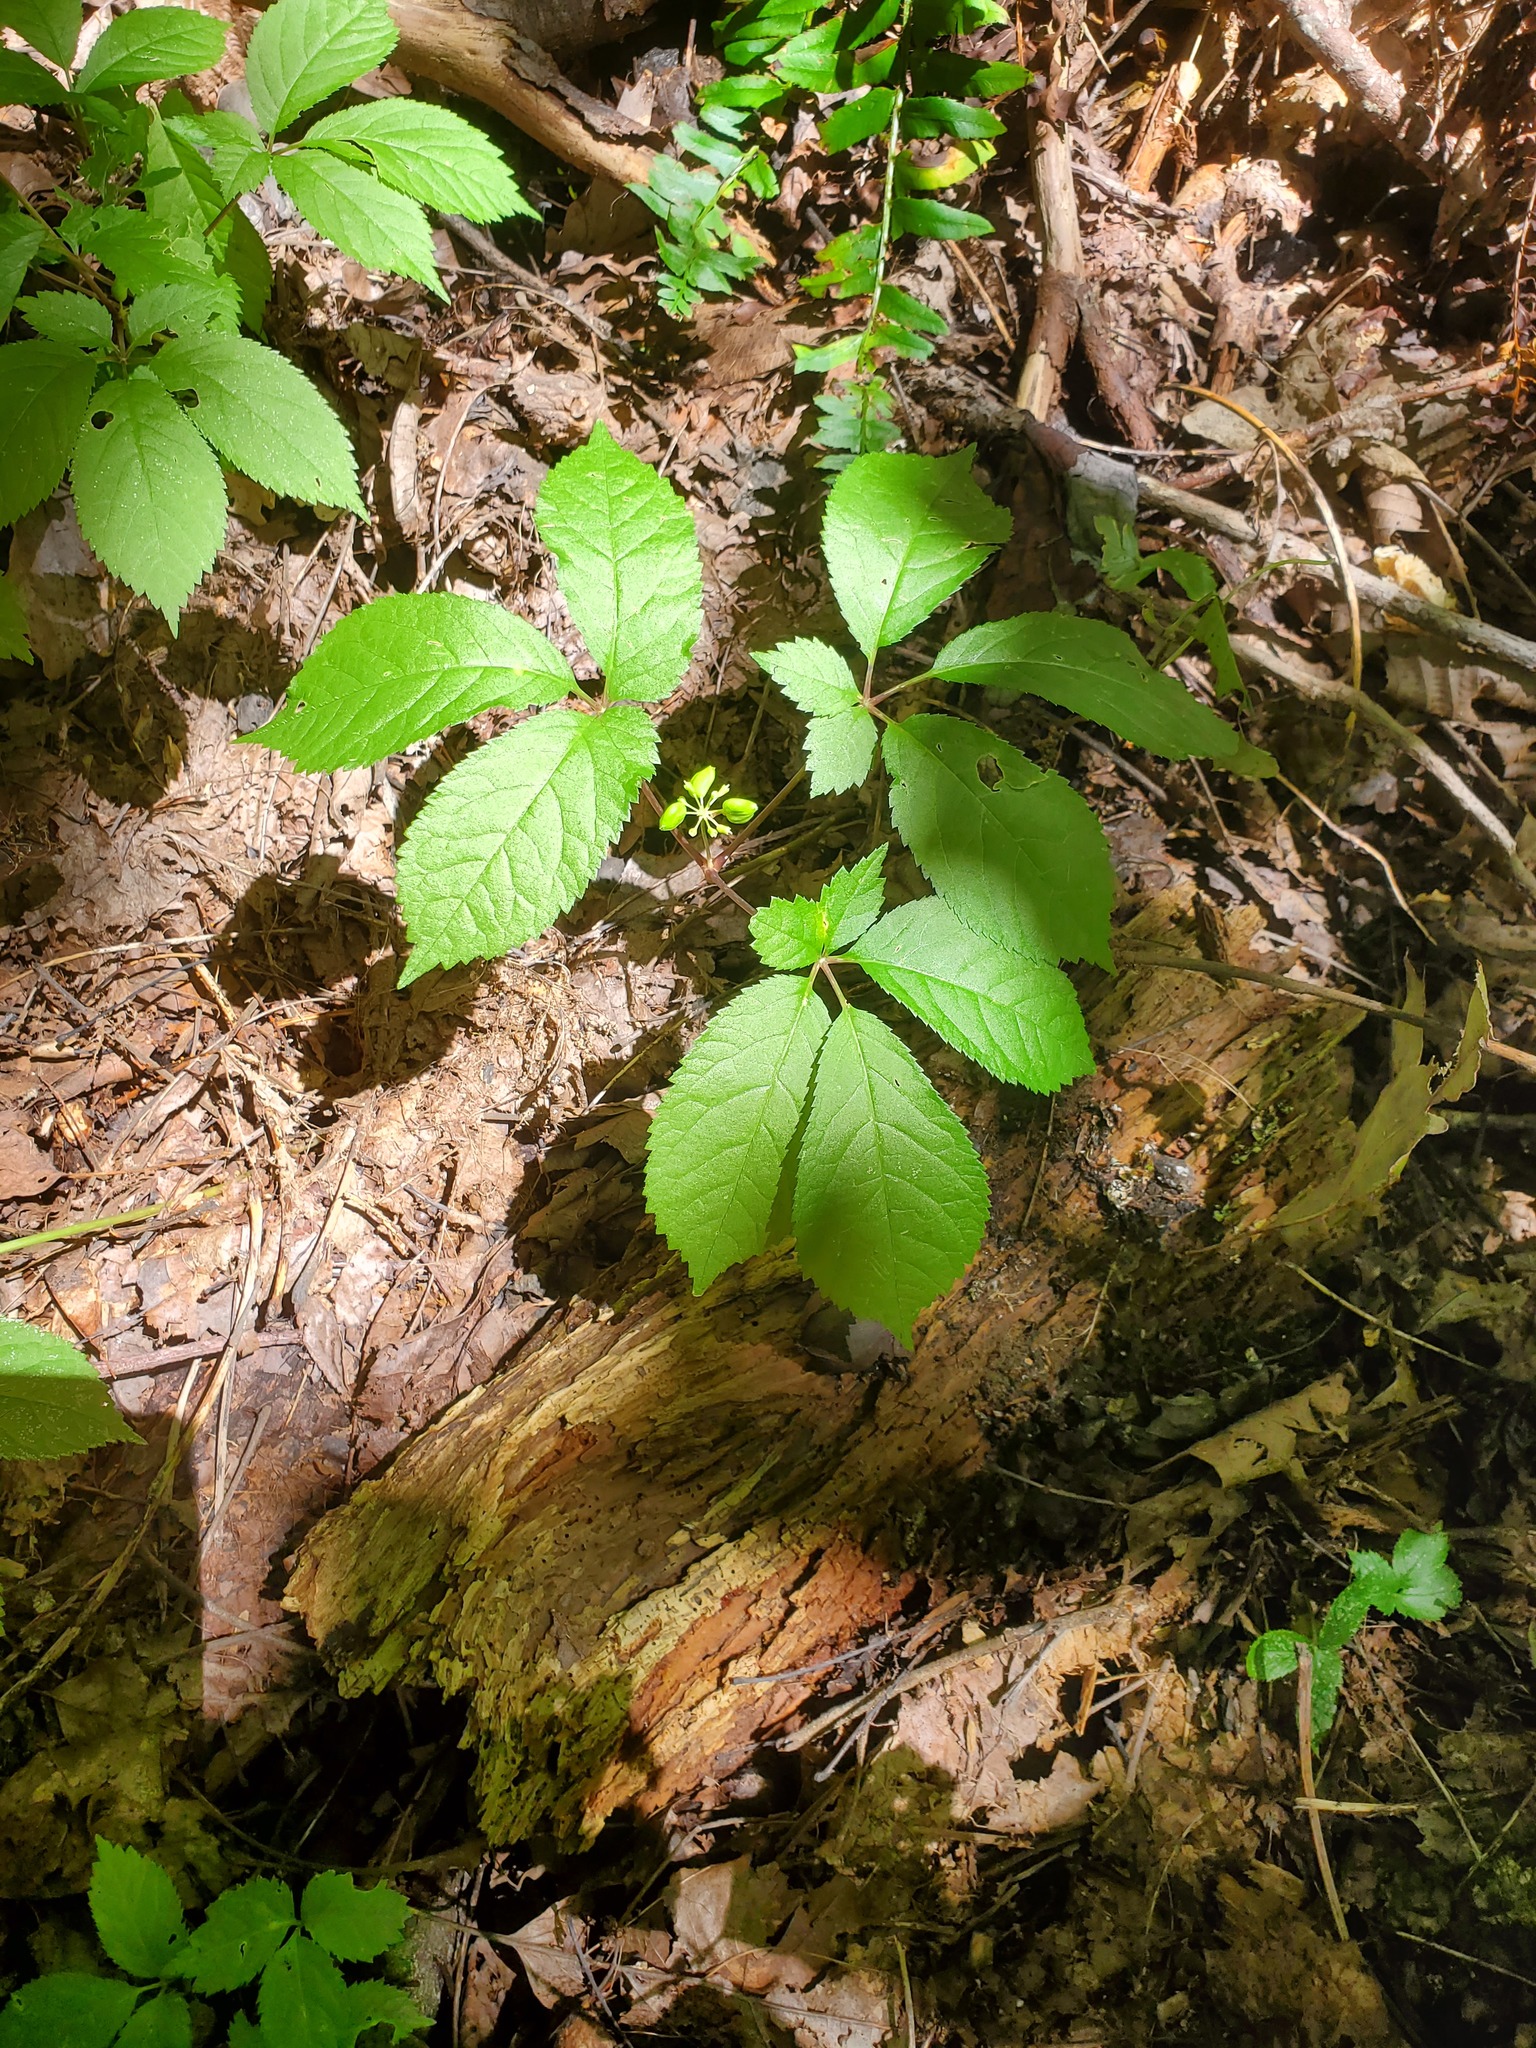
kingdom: Plantae
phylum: Tracheophyta
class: Magnoliopsida
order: Apiales
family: Araliaceae
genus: Panax
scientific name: Panax quinquefolius
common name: American ginseng
